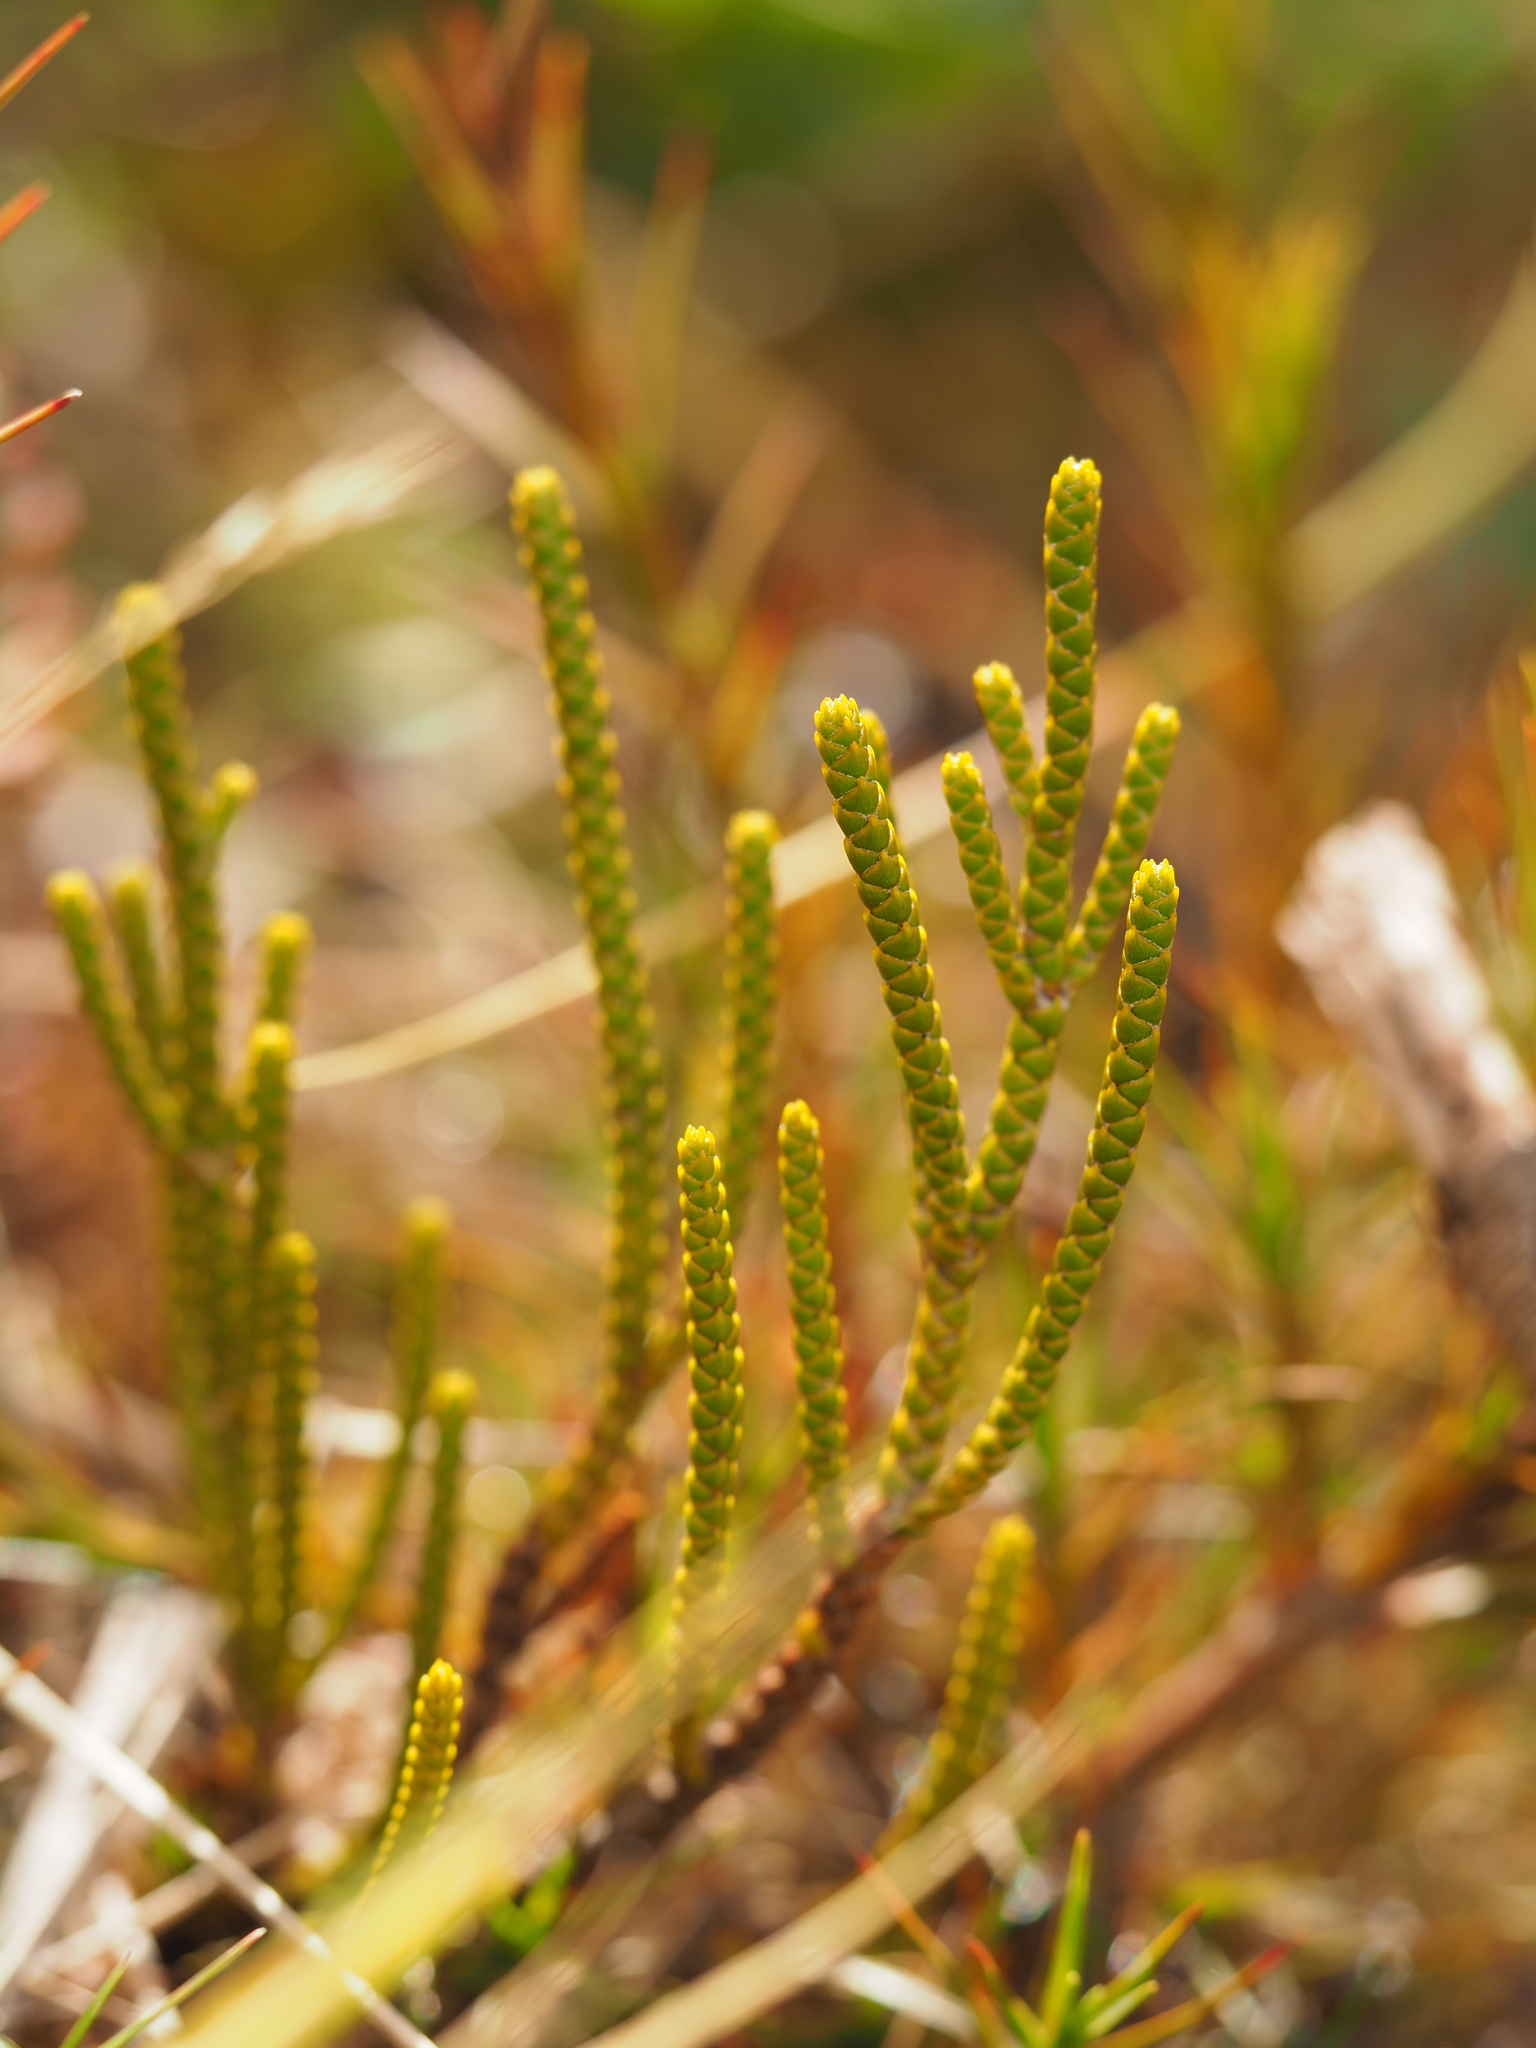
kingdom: Plantae
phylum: Tracheophyta
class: Magnoliopsida
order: Lamiales
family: Plantaginaceae
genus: Veronica
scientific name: Veronica lycopodioides
